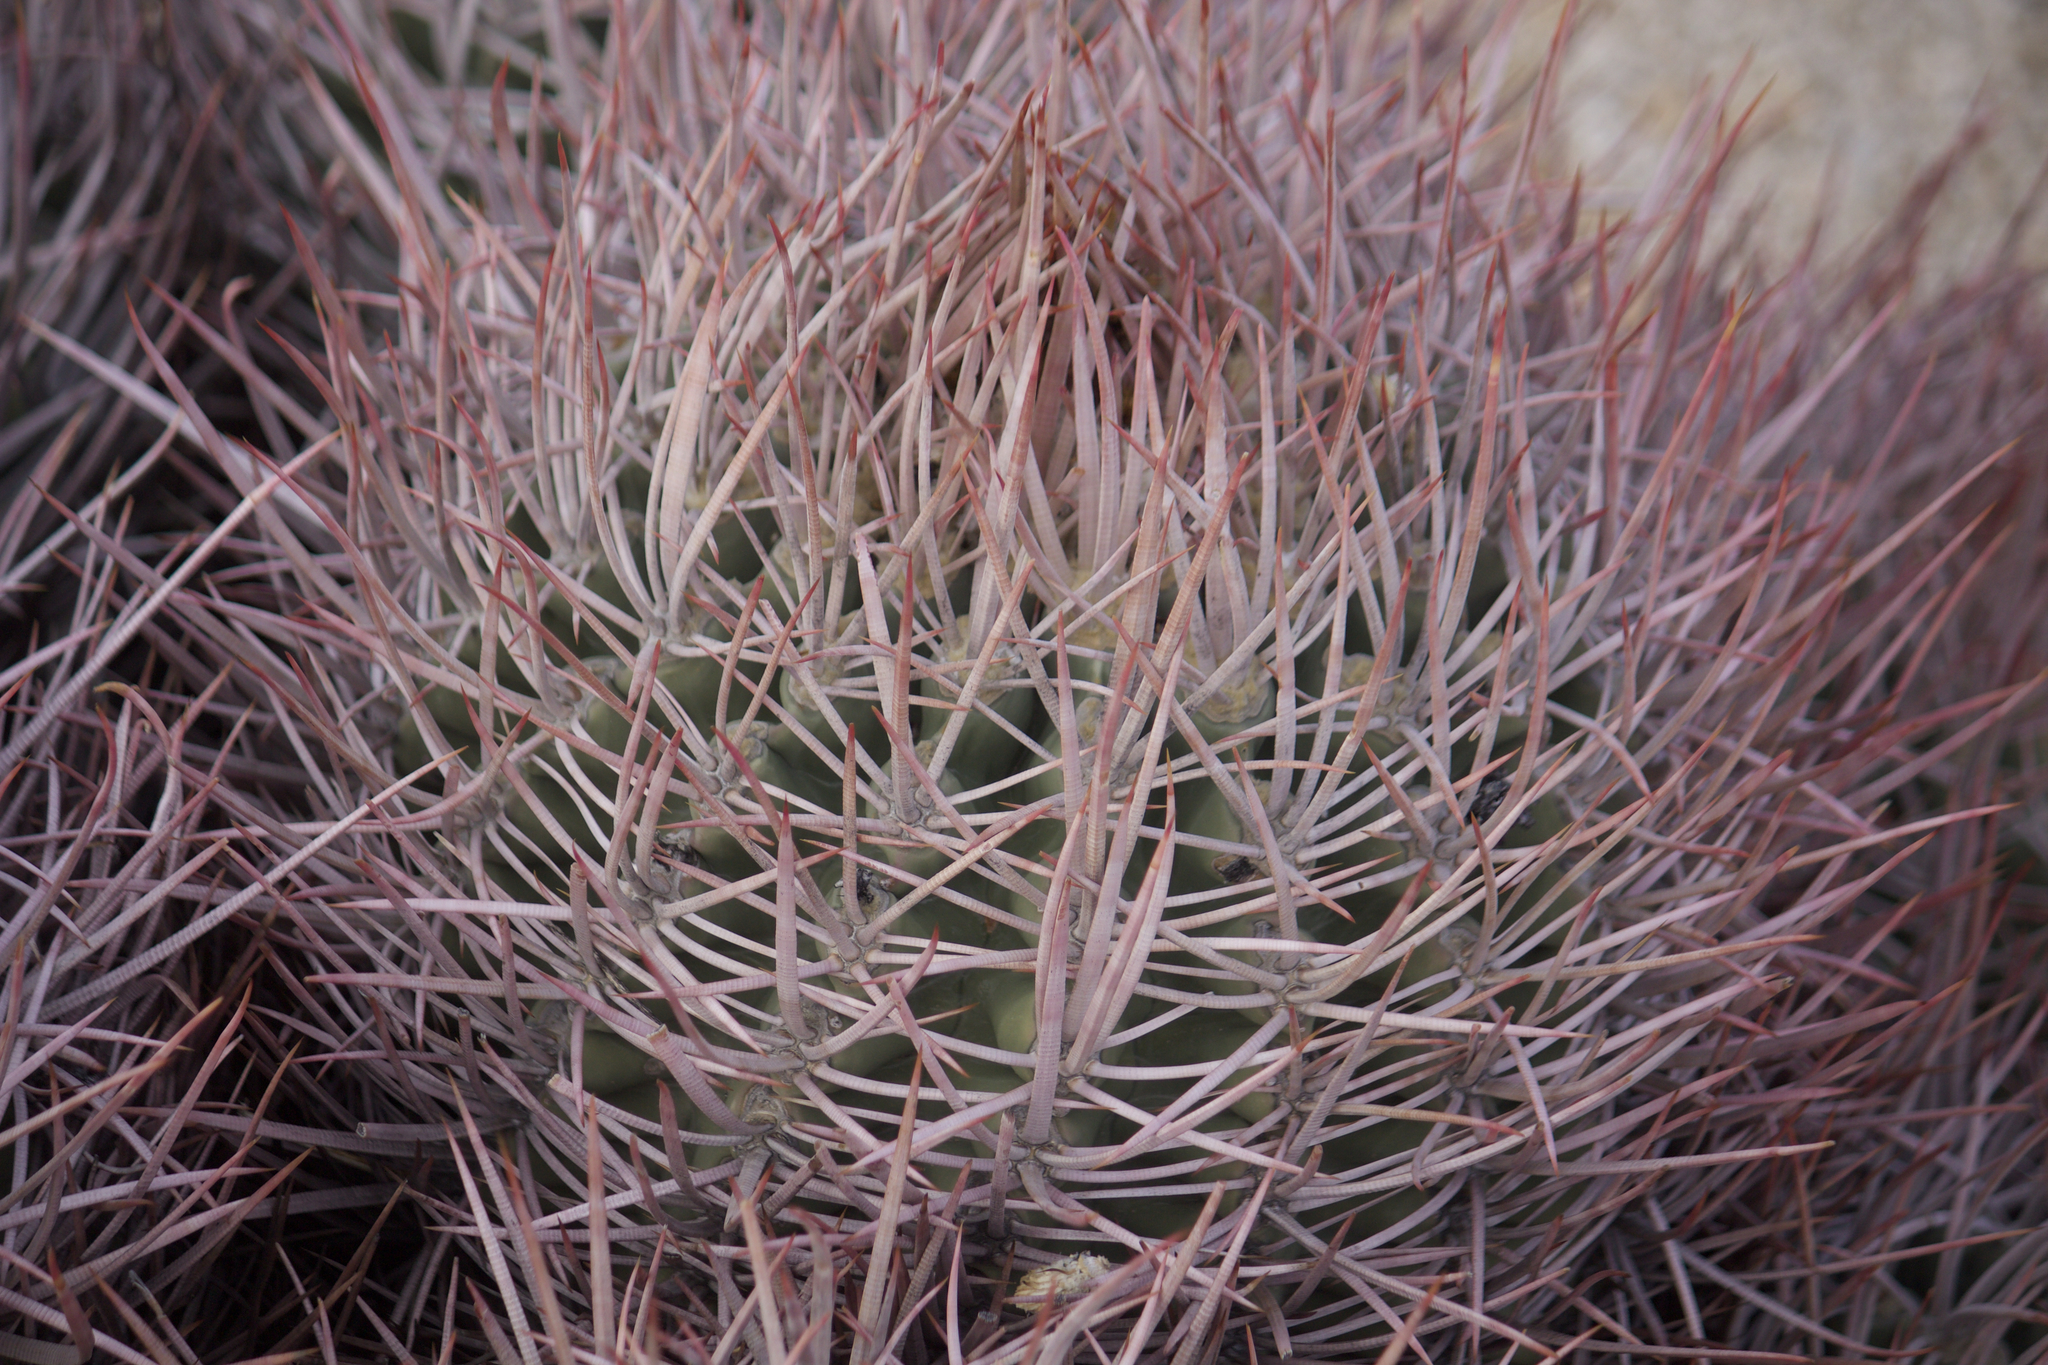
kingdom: Plantae
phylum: Tracheophyta
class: Magnoliopsida
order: Caryophyllales
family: Cactaceae
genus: Echinocactus
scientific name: Echinocactus polycephalus
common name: Cottontop cactus
